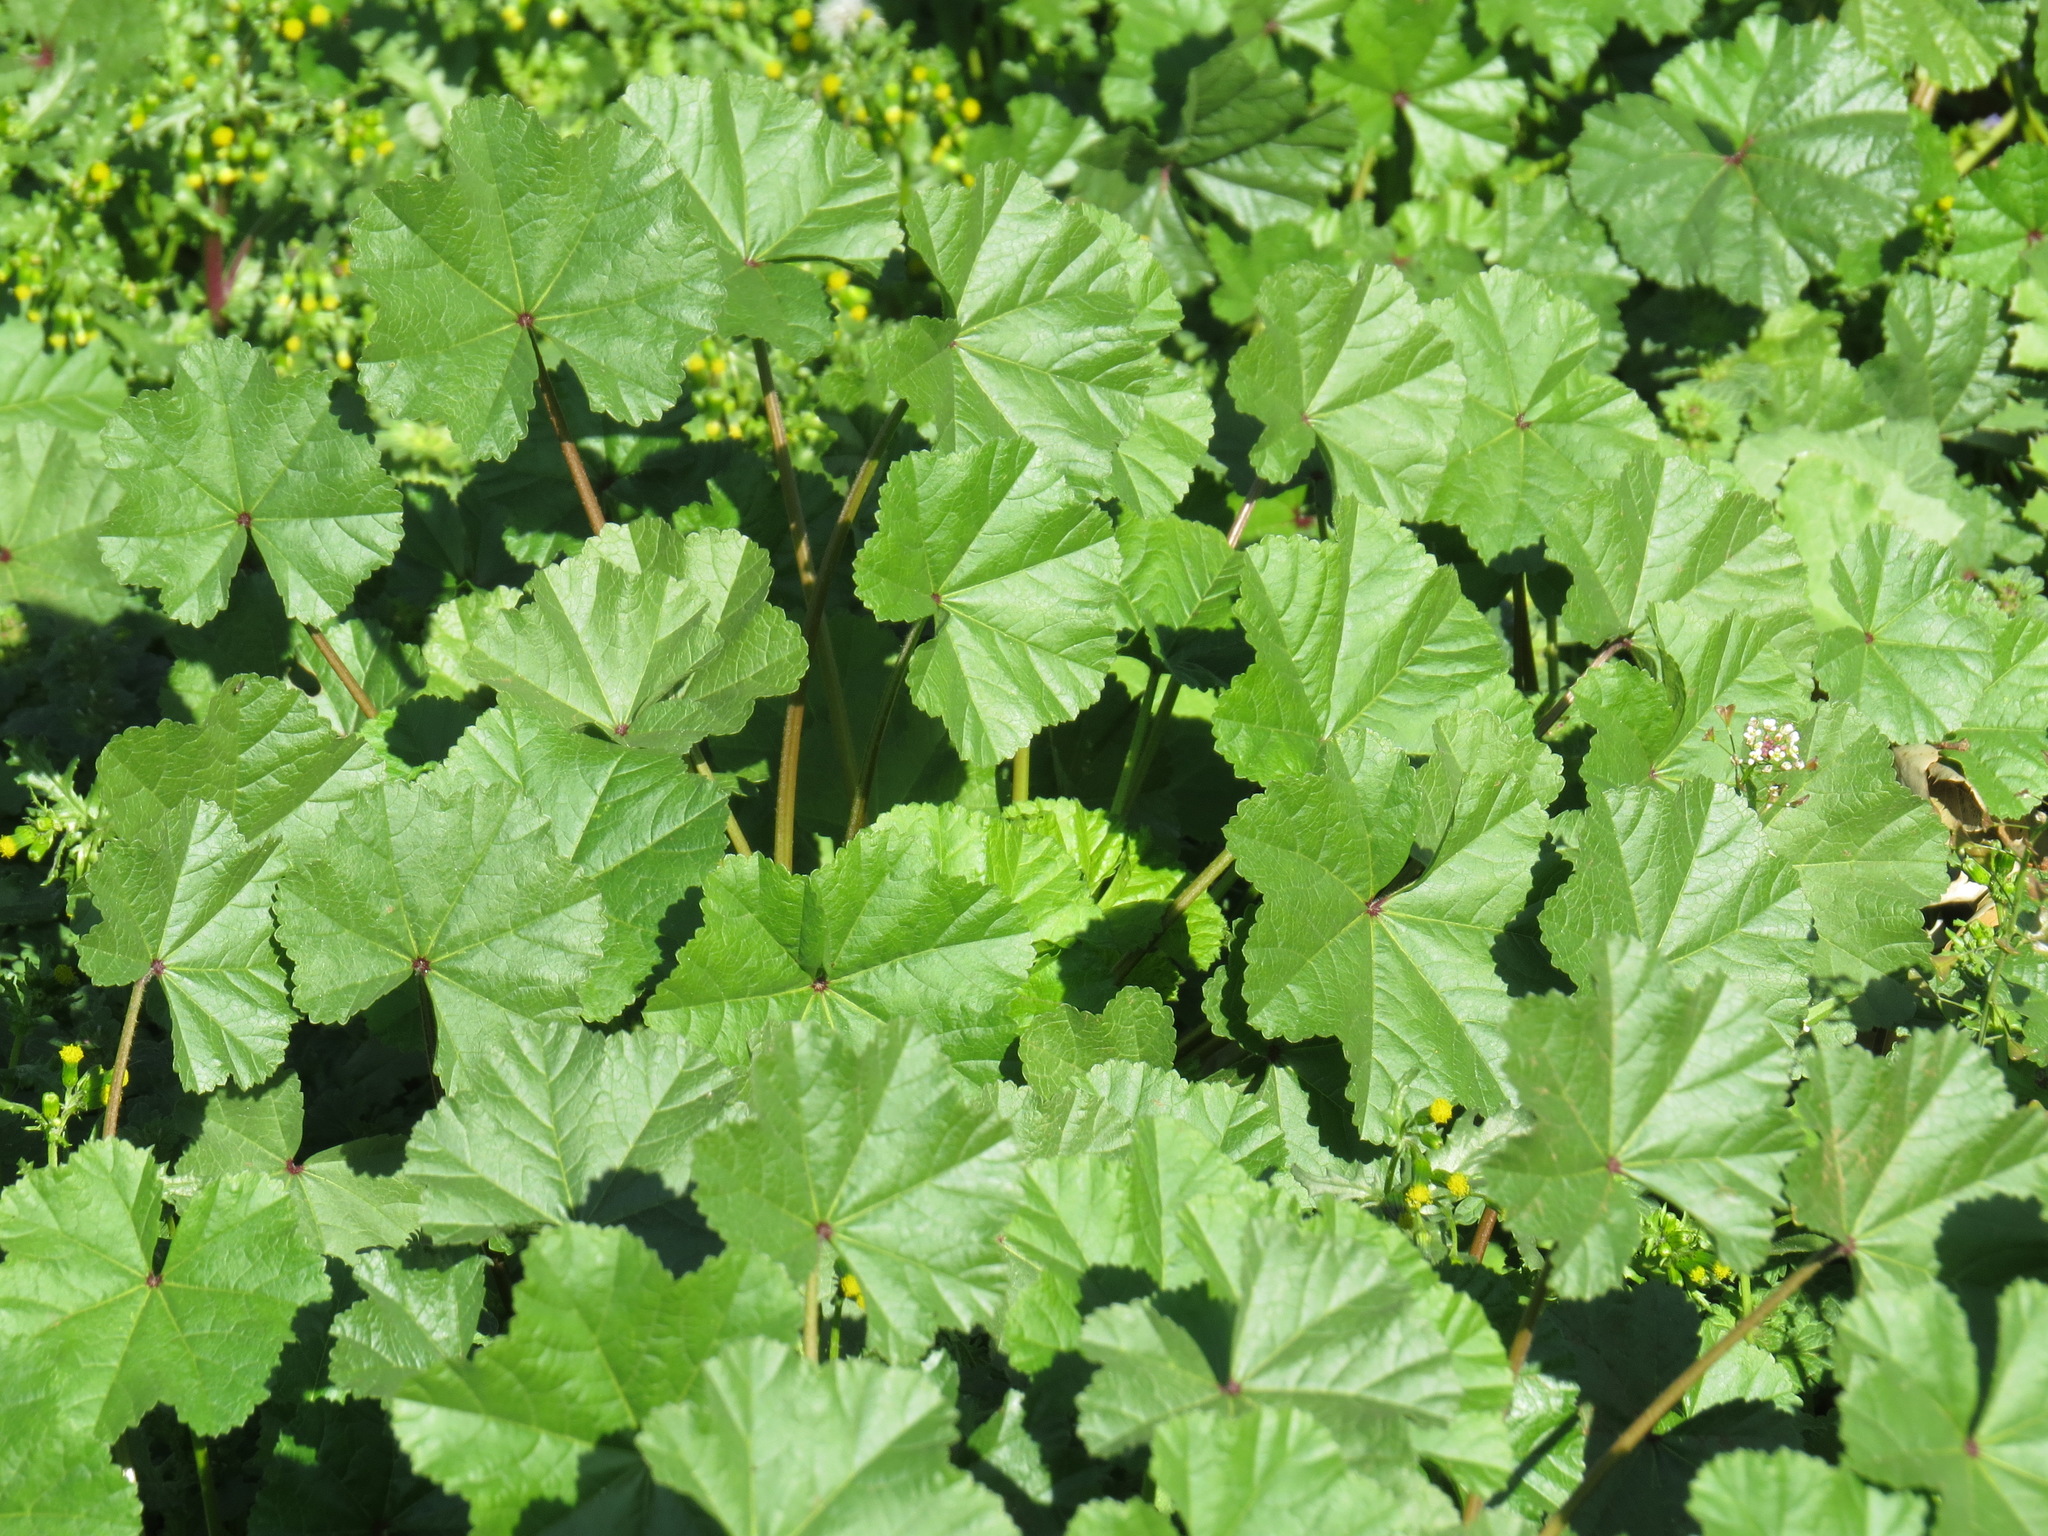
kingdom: Plantae
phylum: Tracheophyta
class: Magnoliopsida
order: Malvales
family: Malvaceae
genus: Malva
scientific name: Malva
